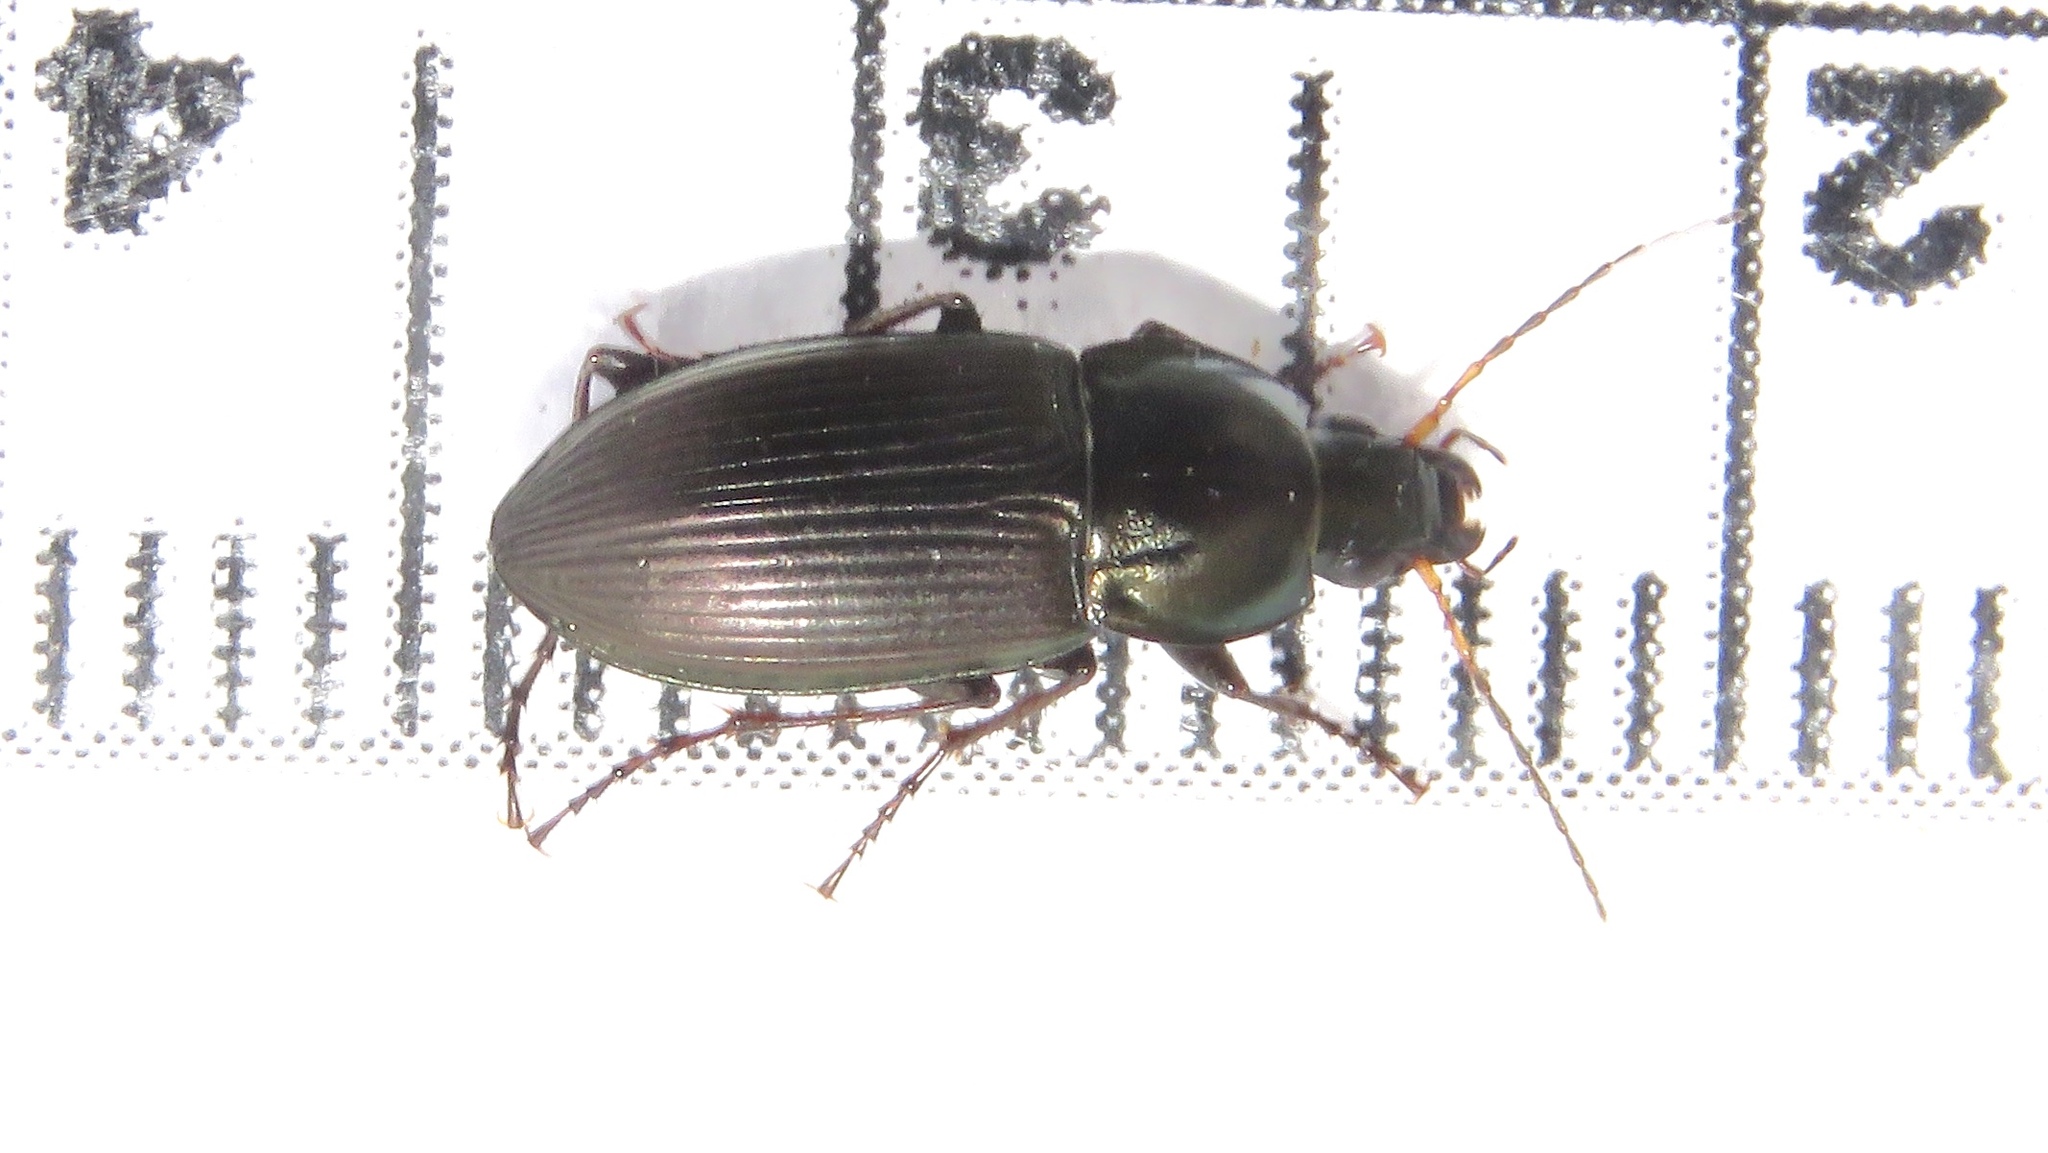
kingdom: Animalia
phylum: Arthropoda
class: Insecta
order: Coleoptera
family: Carabidae
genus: Poecilus
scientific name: Poecilus lucublandus
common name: Woodland ground beetle
